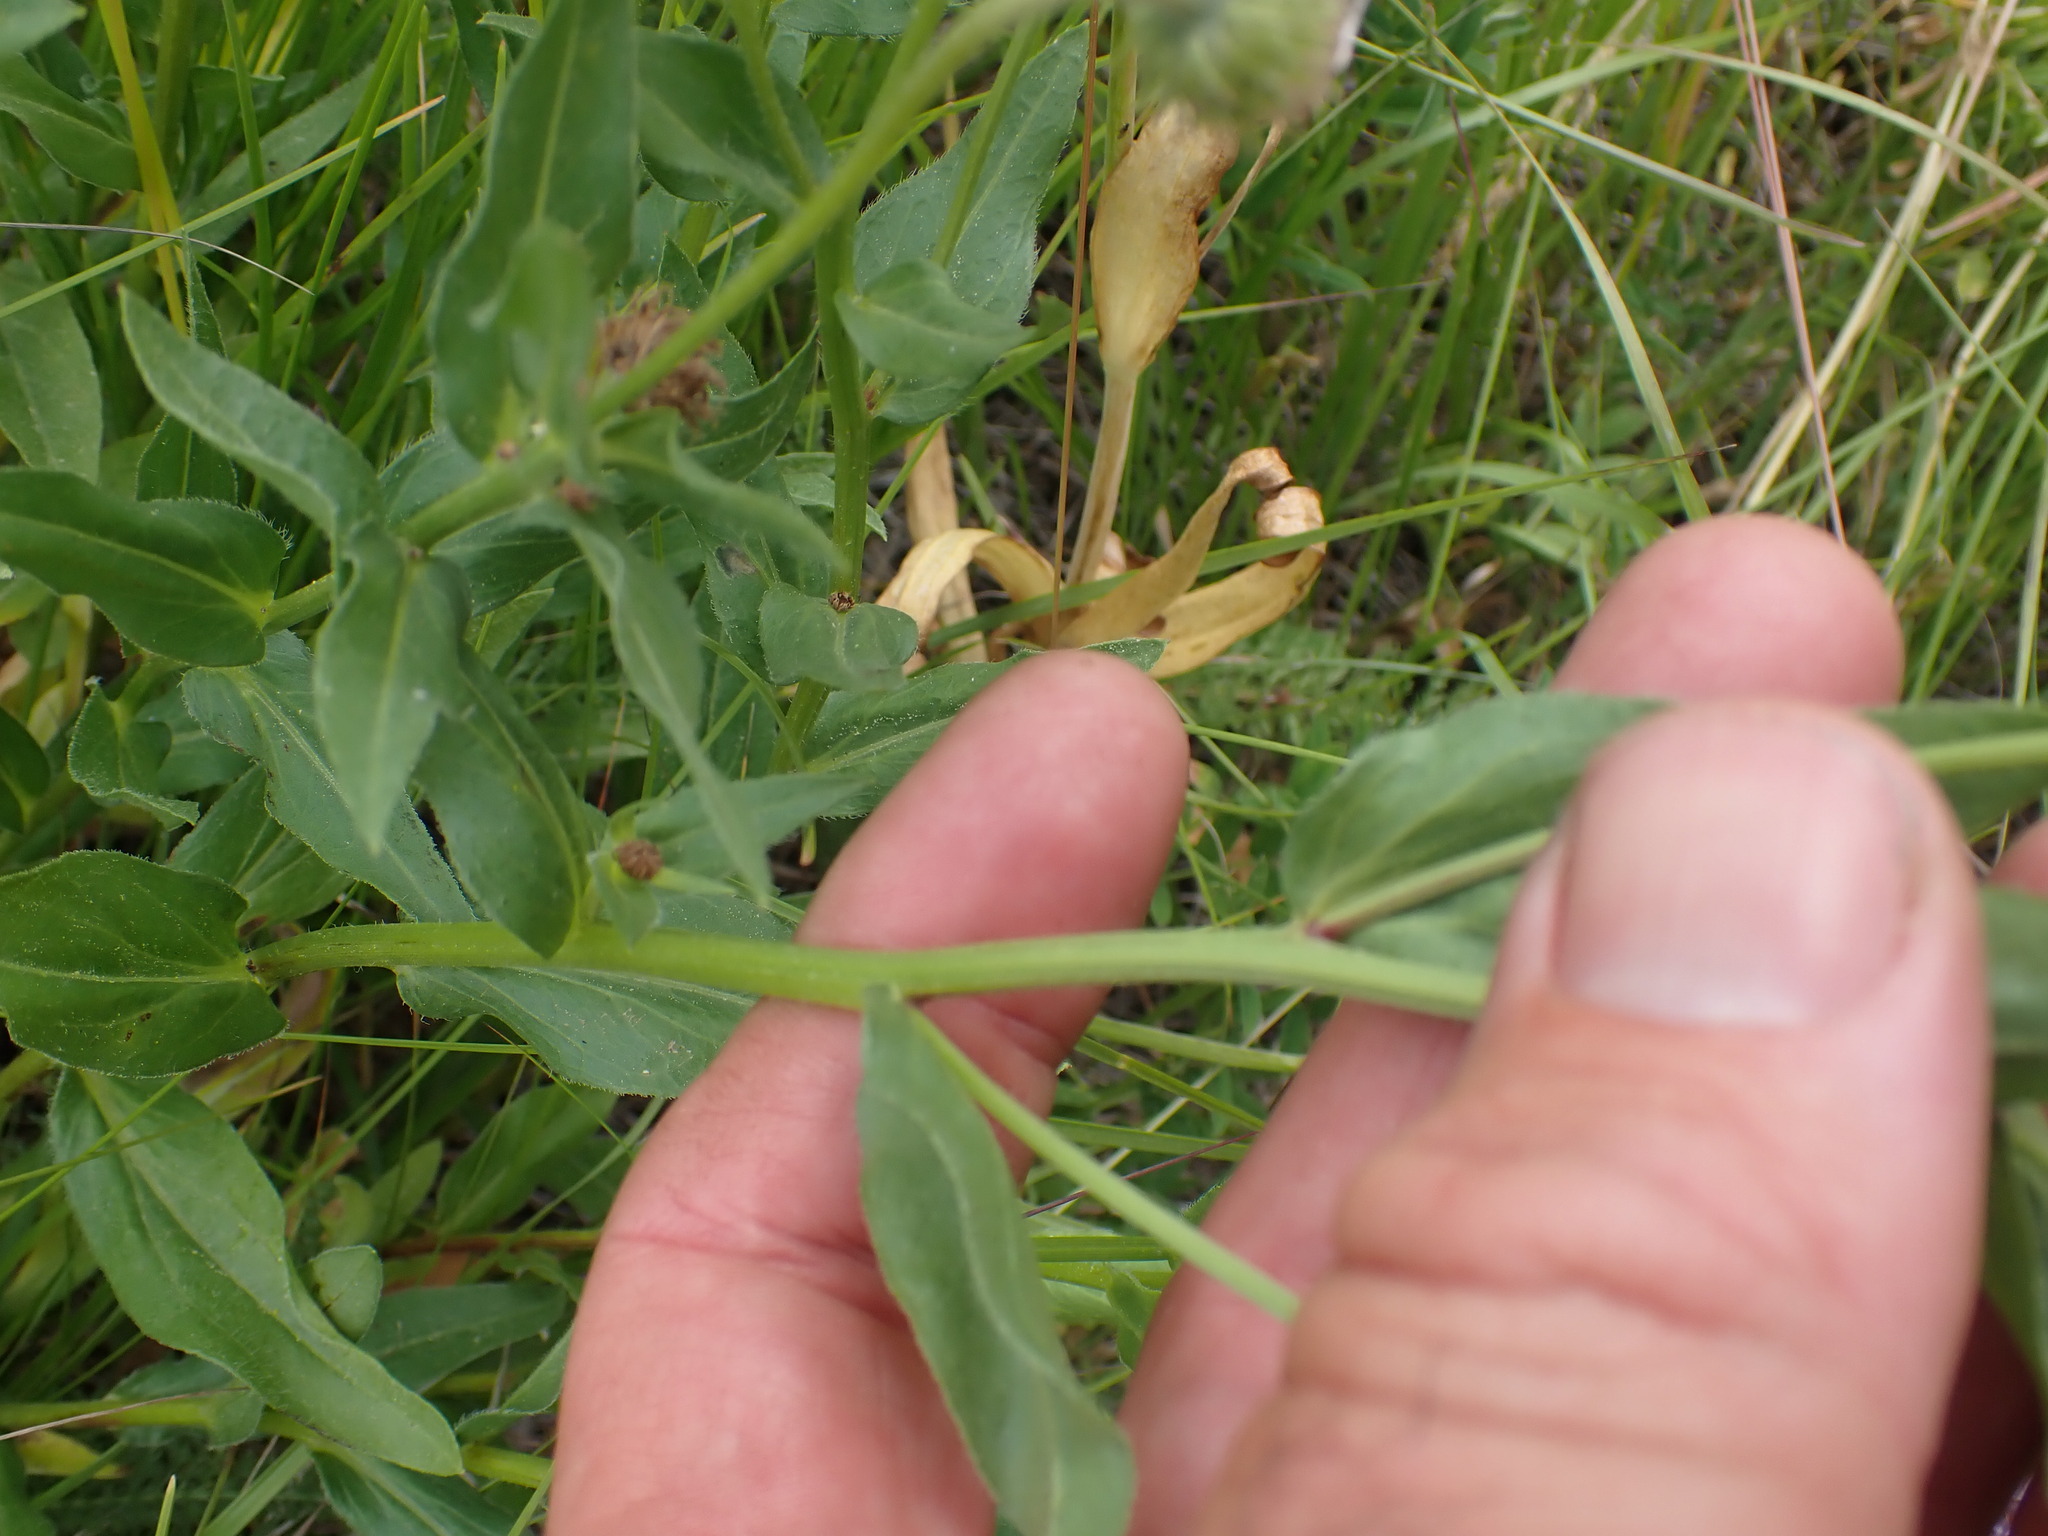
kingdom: Plantae
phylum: Tracheophyta
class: Magnoliopsida
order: Asterales
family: Asteraceae
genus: Erigeron
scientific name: Erigeron speciosus
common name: Aspen fleabane
